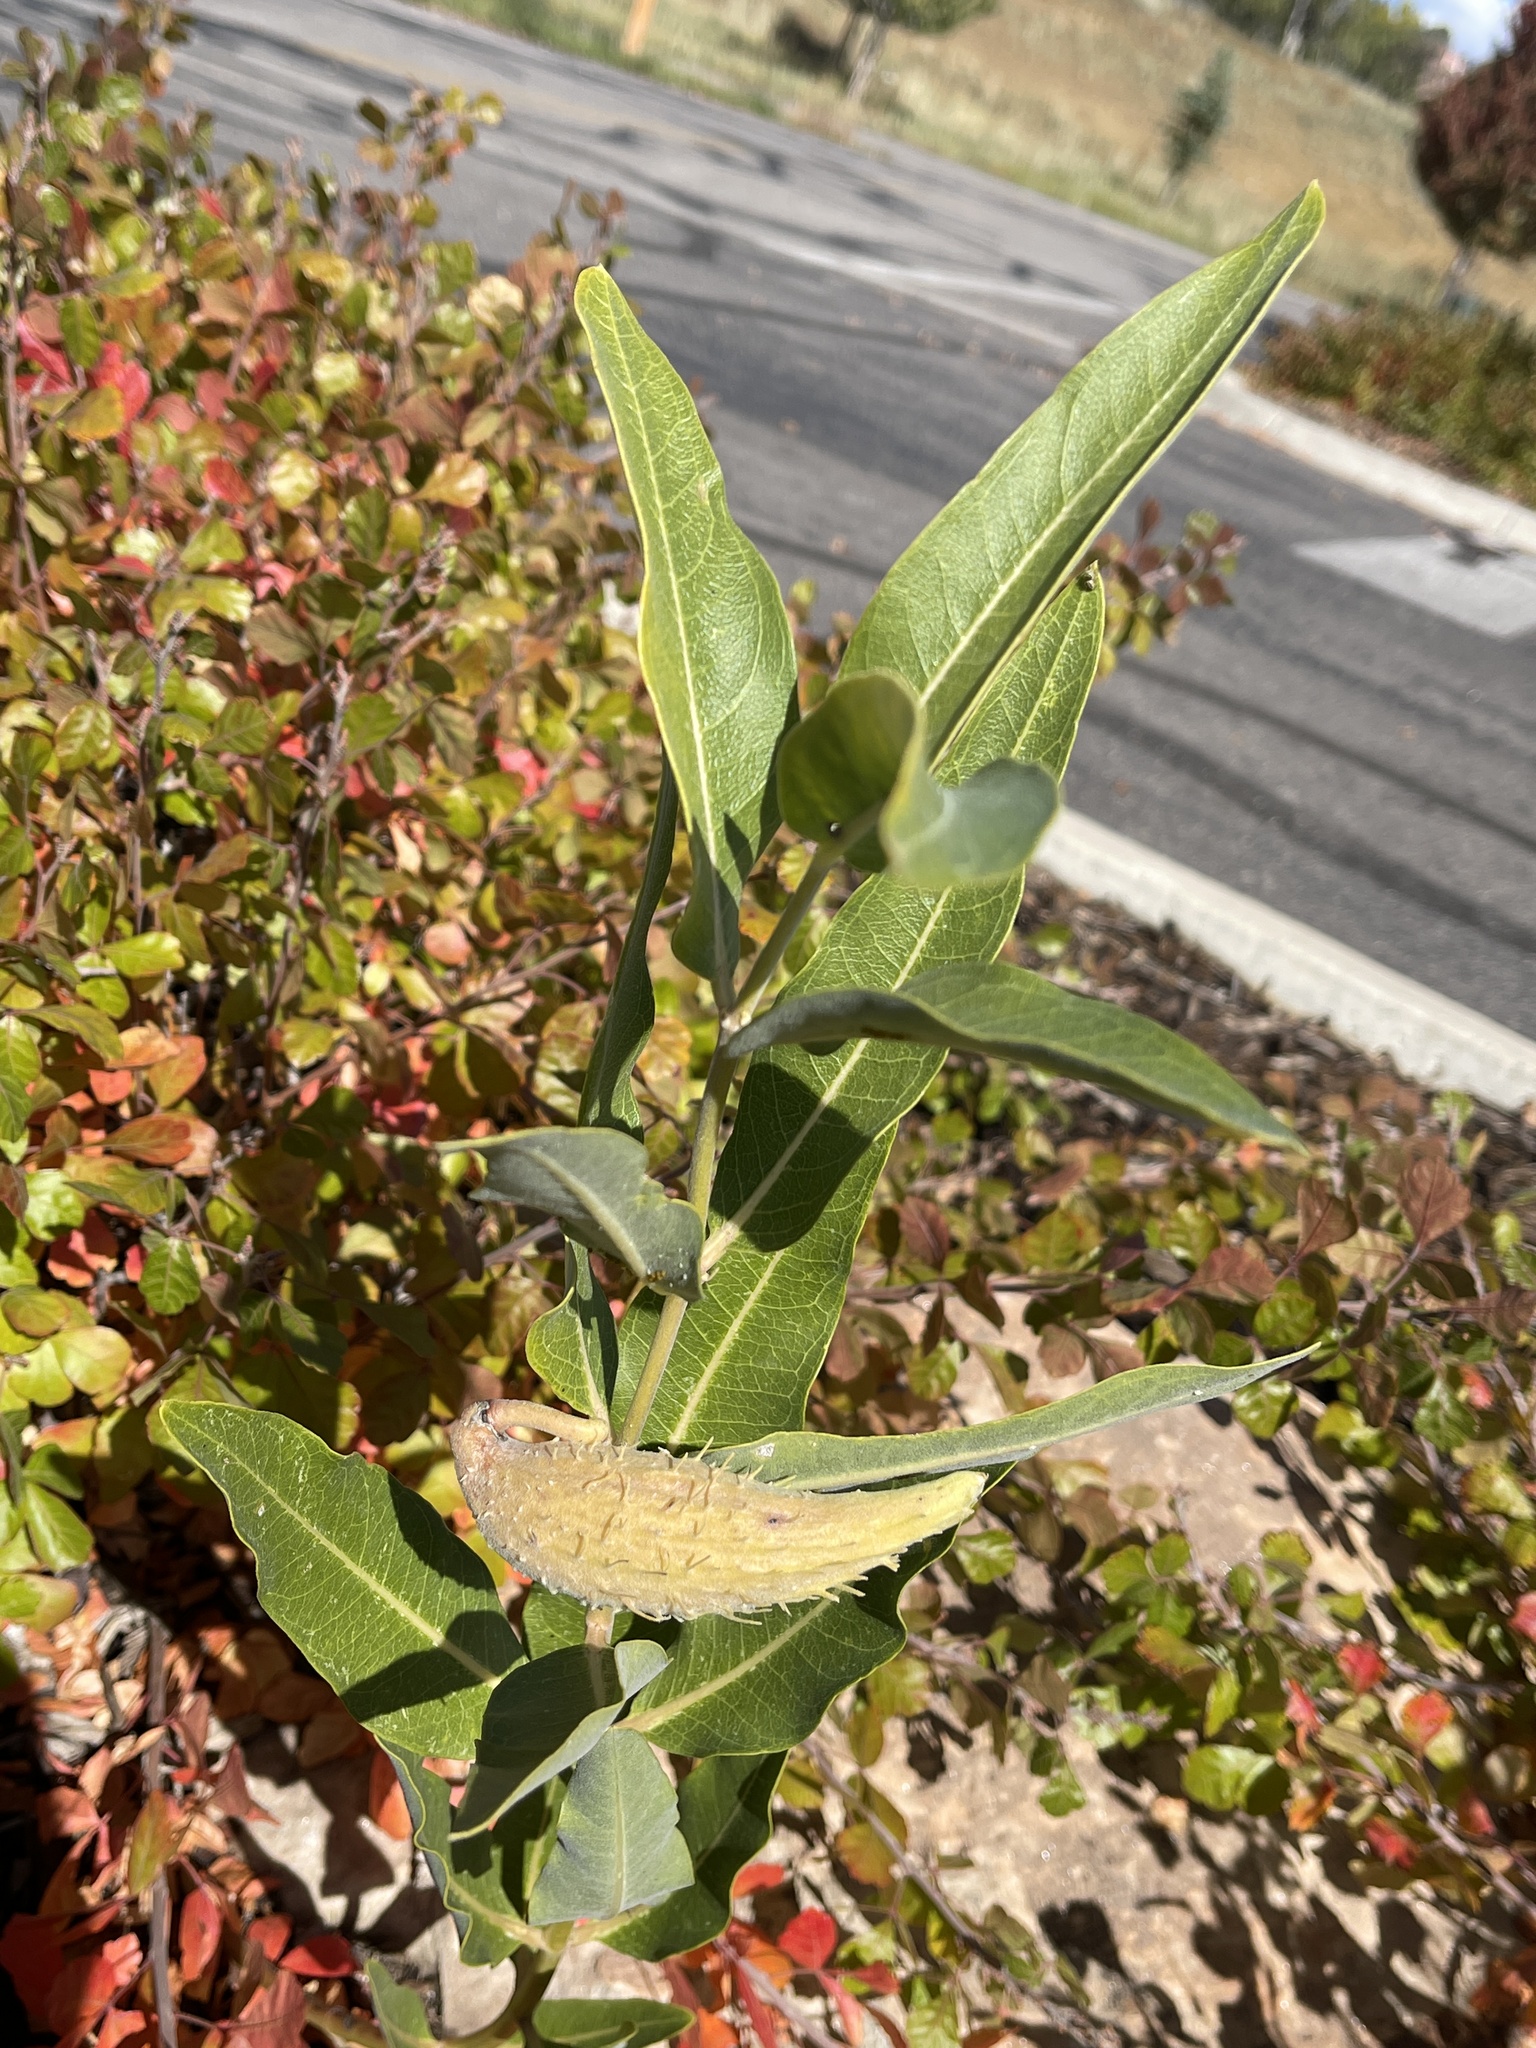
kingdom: Plantae
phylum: Tracheophyta
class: Magnoliopsida
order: Gentianales
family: Apocynaceae
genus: Asclepias
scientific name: Asclepias speciosa
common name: Showy milkweed
